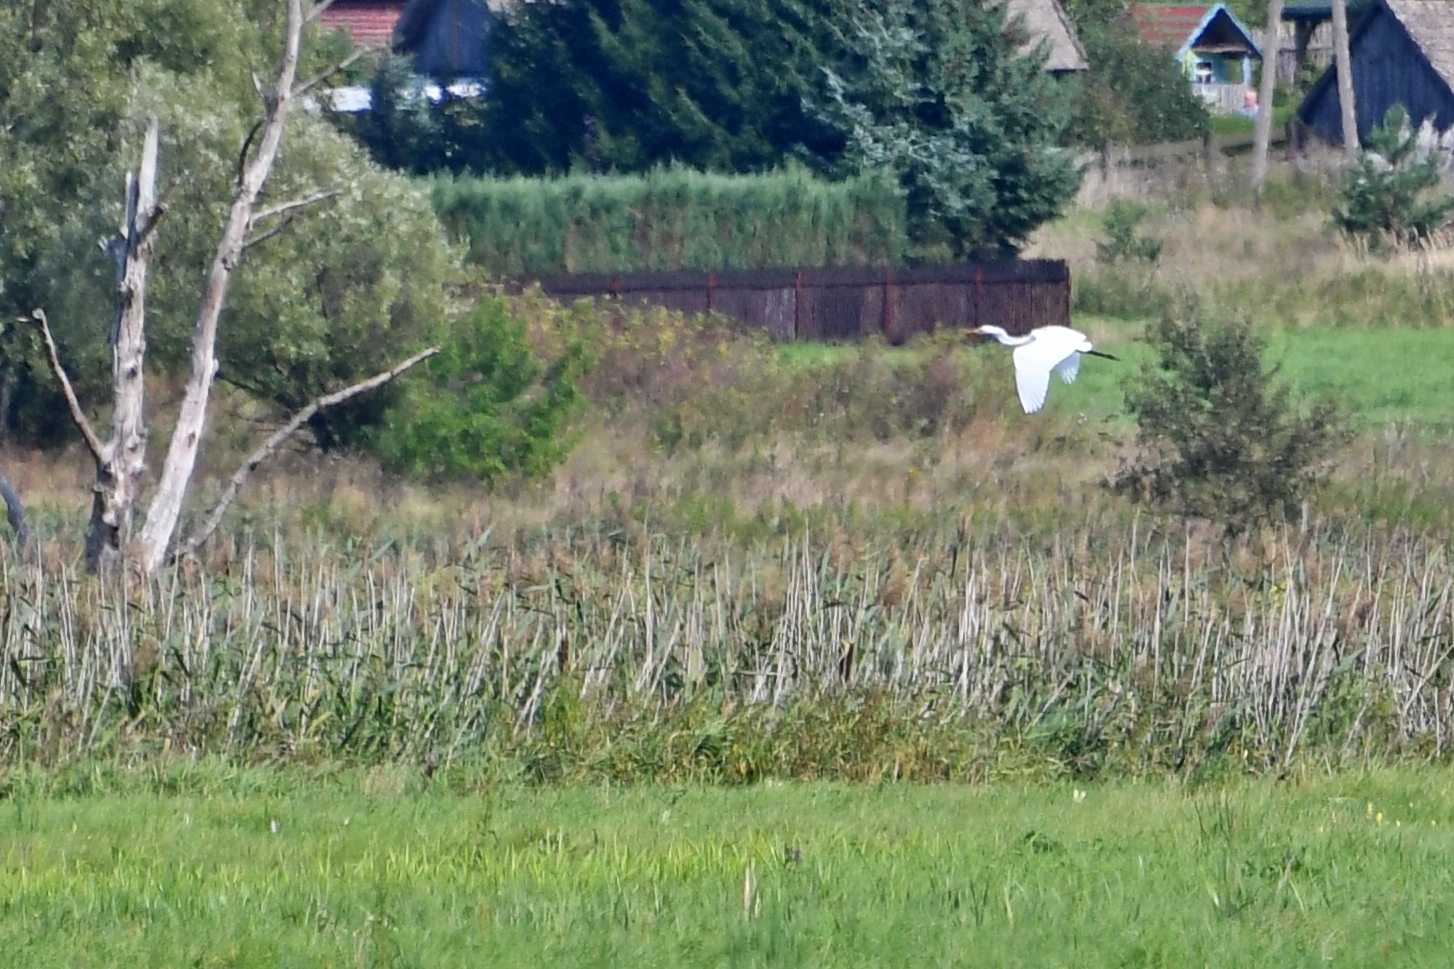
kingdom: Animalia
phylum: Chordata
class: Aves
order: Pelecaniformes
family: Ardeidae
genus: Ardea
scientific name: Ardea alba
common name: Great egret
